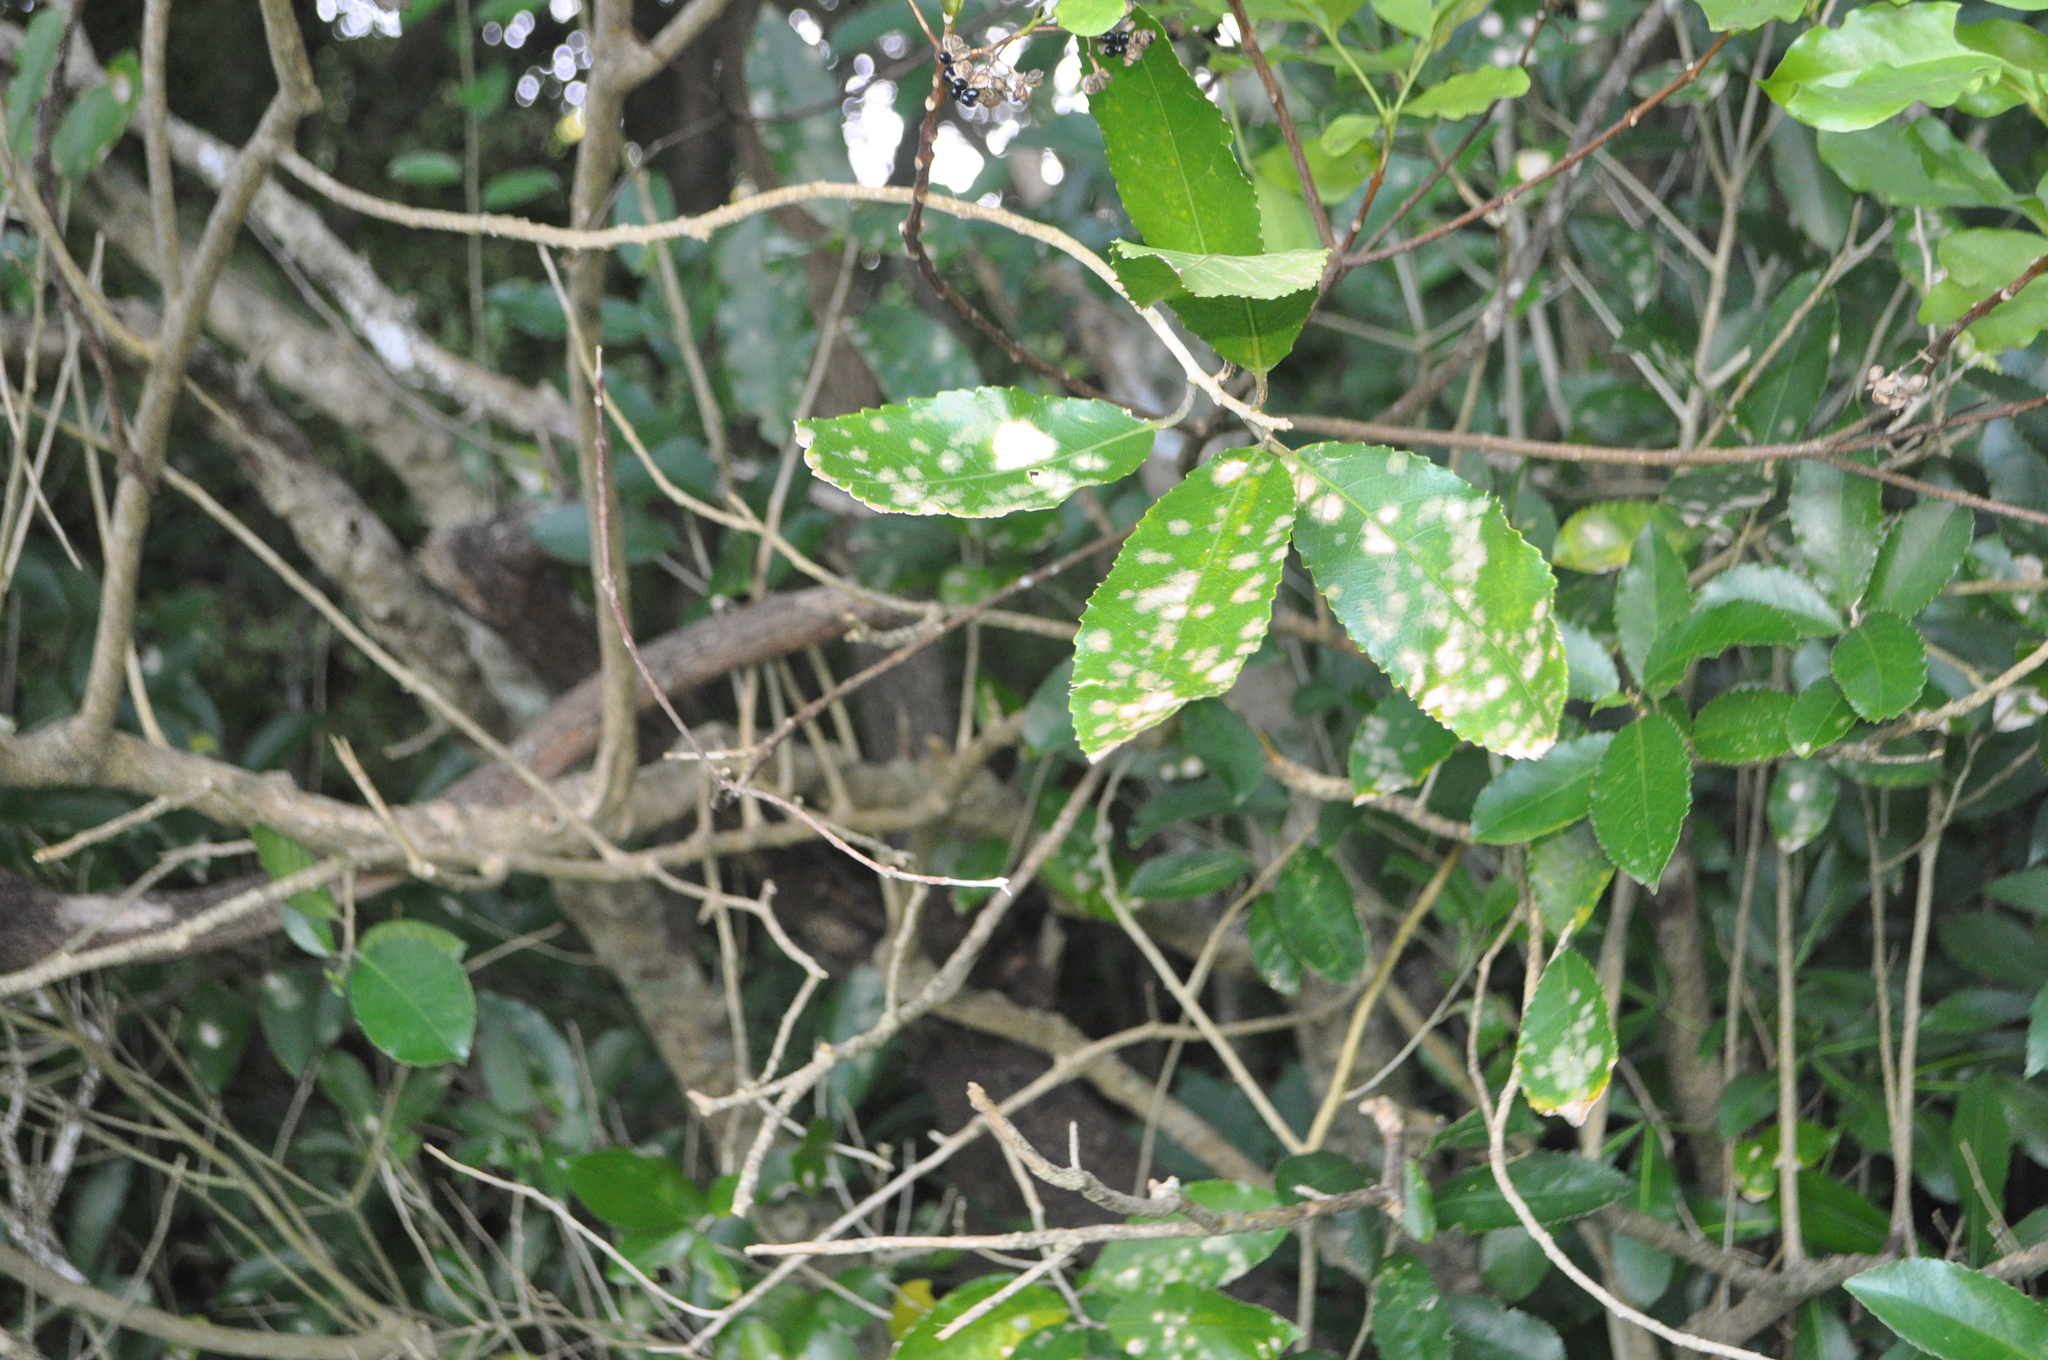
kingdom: Plantae
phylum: Chlorophyta
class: Ulvophyceae
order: Trentepohliales
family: Trentepohliaceae
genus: Cephaleuros
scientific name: Cephaleuros
